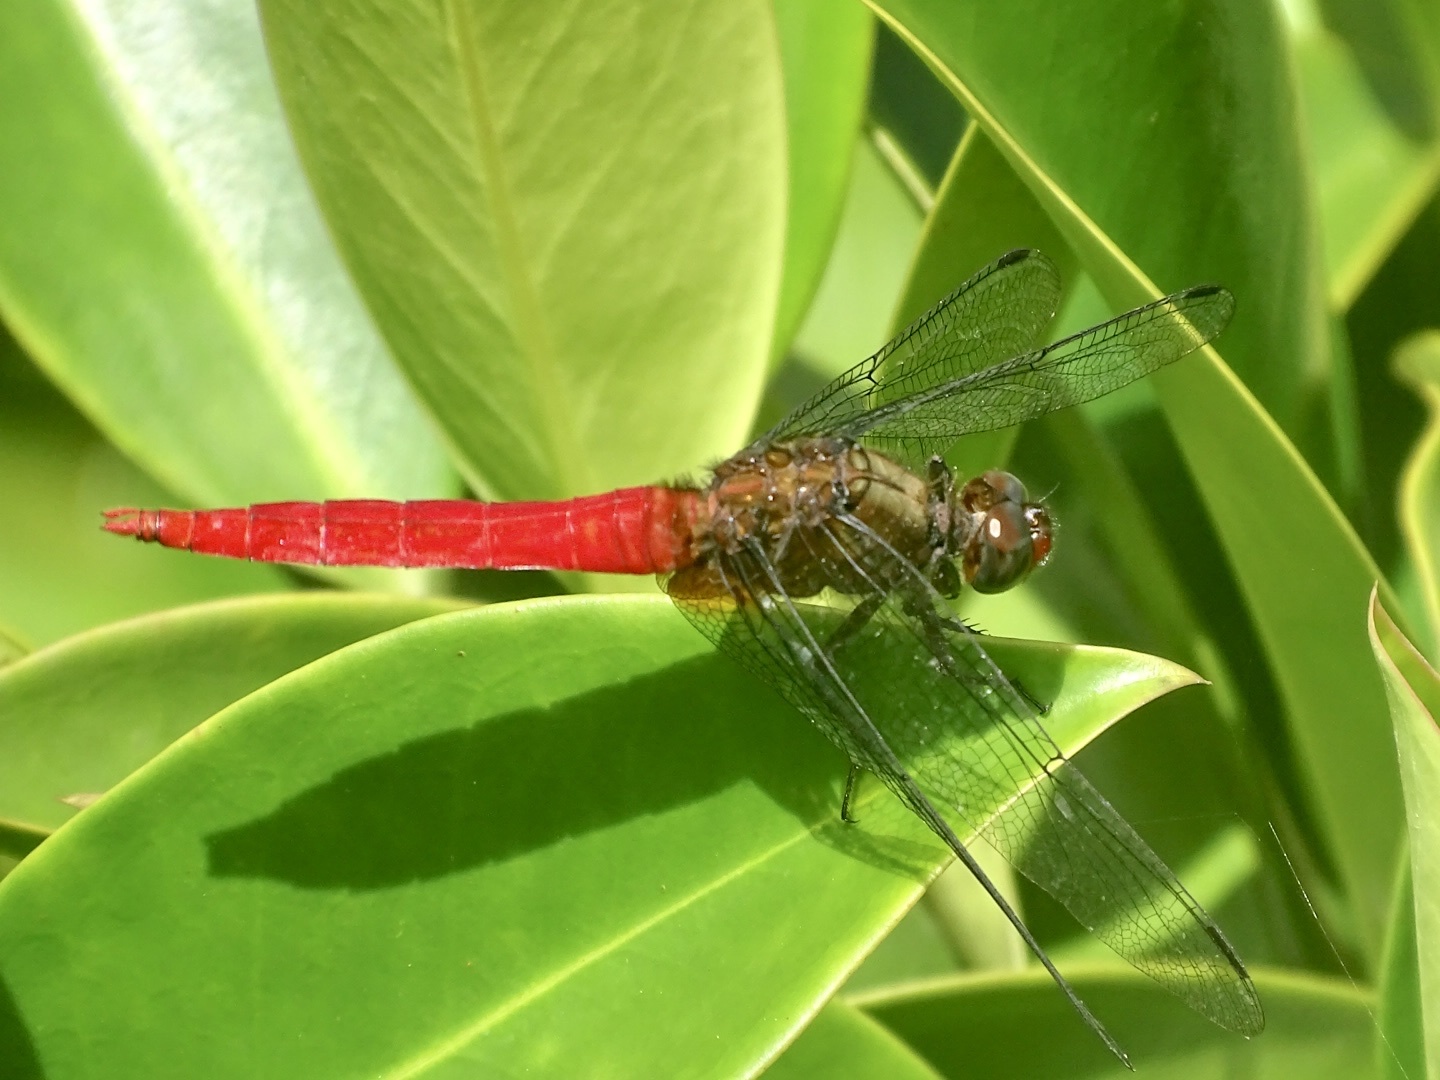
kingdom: Animalia
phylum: Arthropoda
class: Insecta
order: Odonata
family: Libellulidae
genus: Orthetrum
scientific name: Orthetrum chrysis
